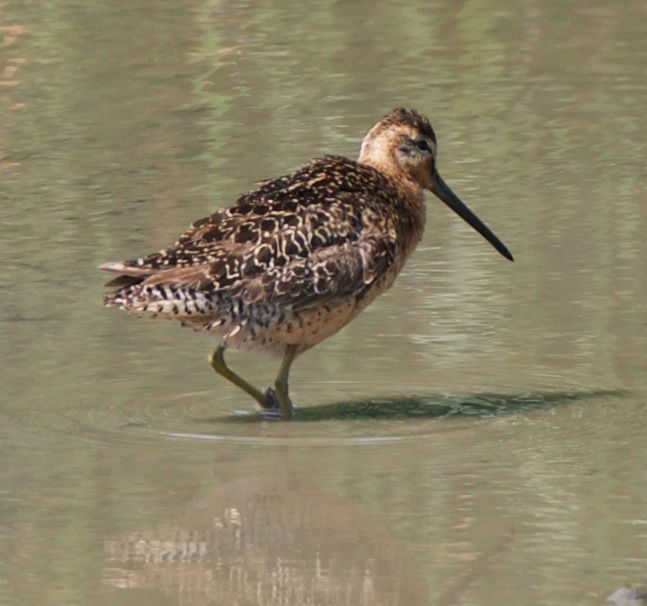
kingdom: Animalia
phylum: Chordata
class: Aves
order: Charadriiformes
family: Scolopacidae
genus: Limnodromus
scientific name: Limnodromus scolopaceus
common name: Long-billed dowitcher
